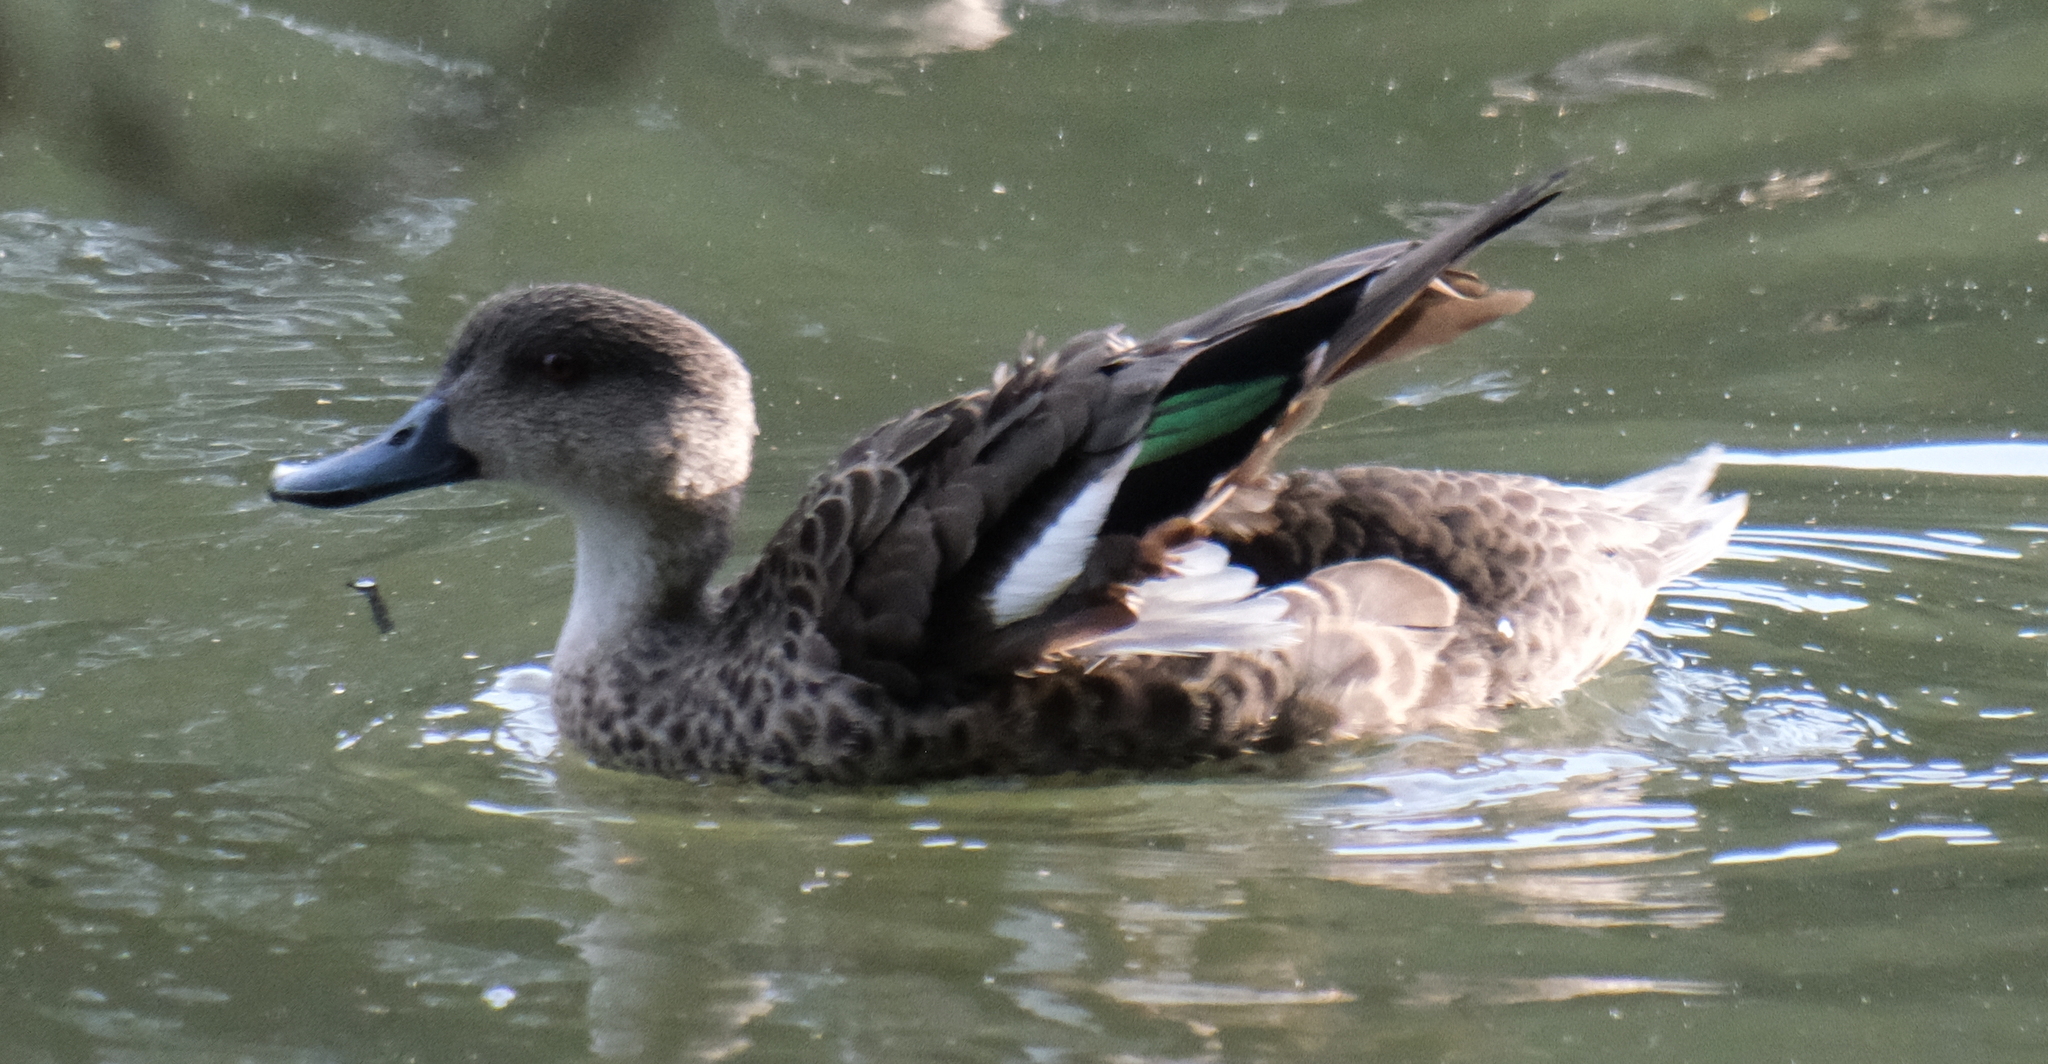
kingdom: Animalia
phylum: Chordata
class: Aves
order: Anseriformes
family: Anatidae
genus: Anas
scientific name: Anas gracilis
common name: Grey teal
